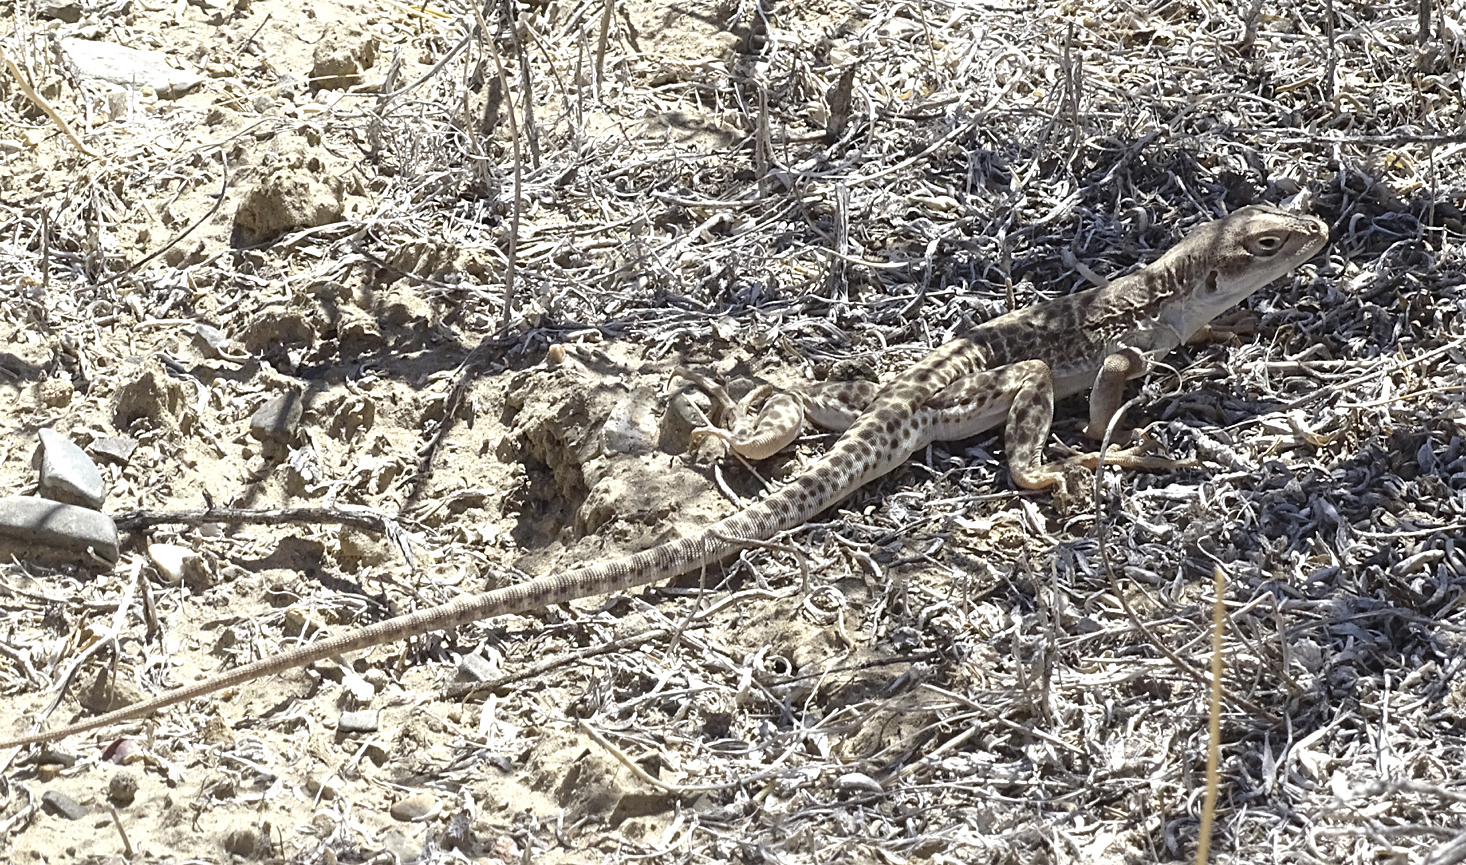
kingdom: Animalia
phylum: Chordata
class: Squamata
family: Crotaphytidae
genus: Gambelia
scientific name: Gambelia wislizenii
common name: Longnose leopard lizard
